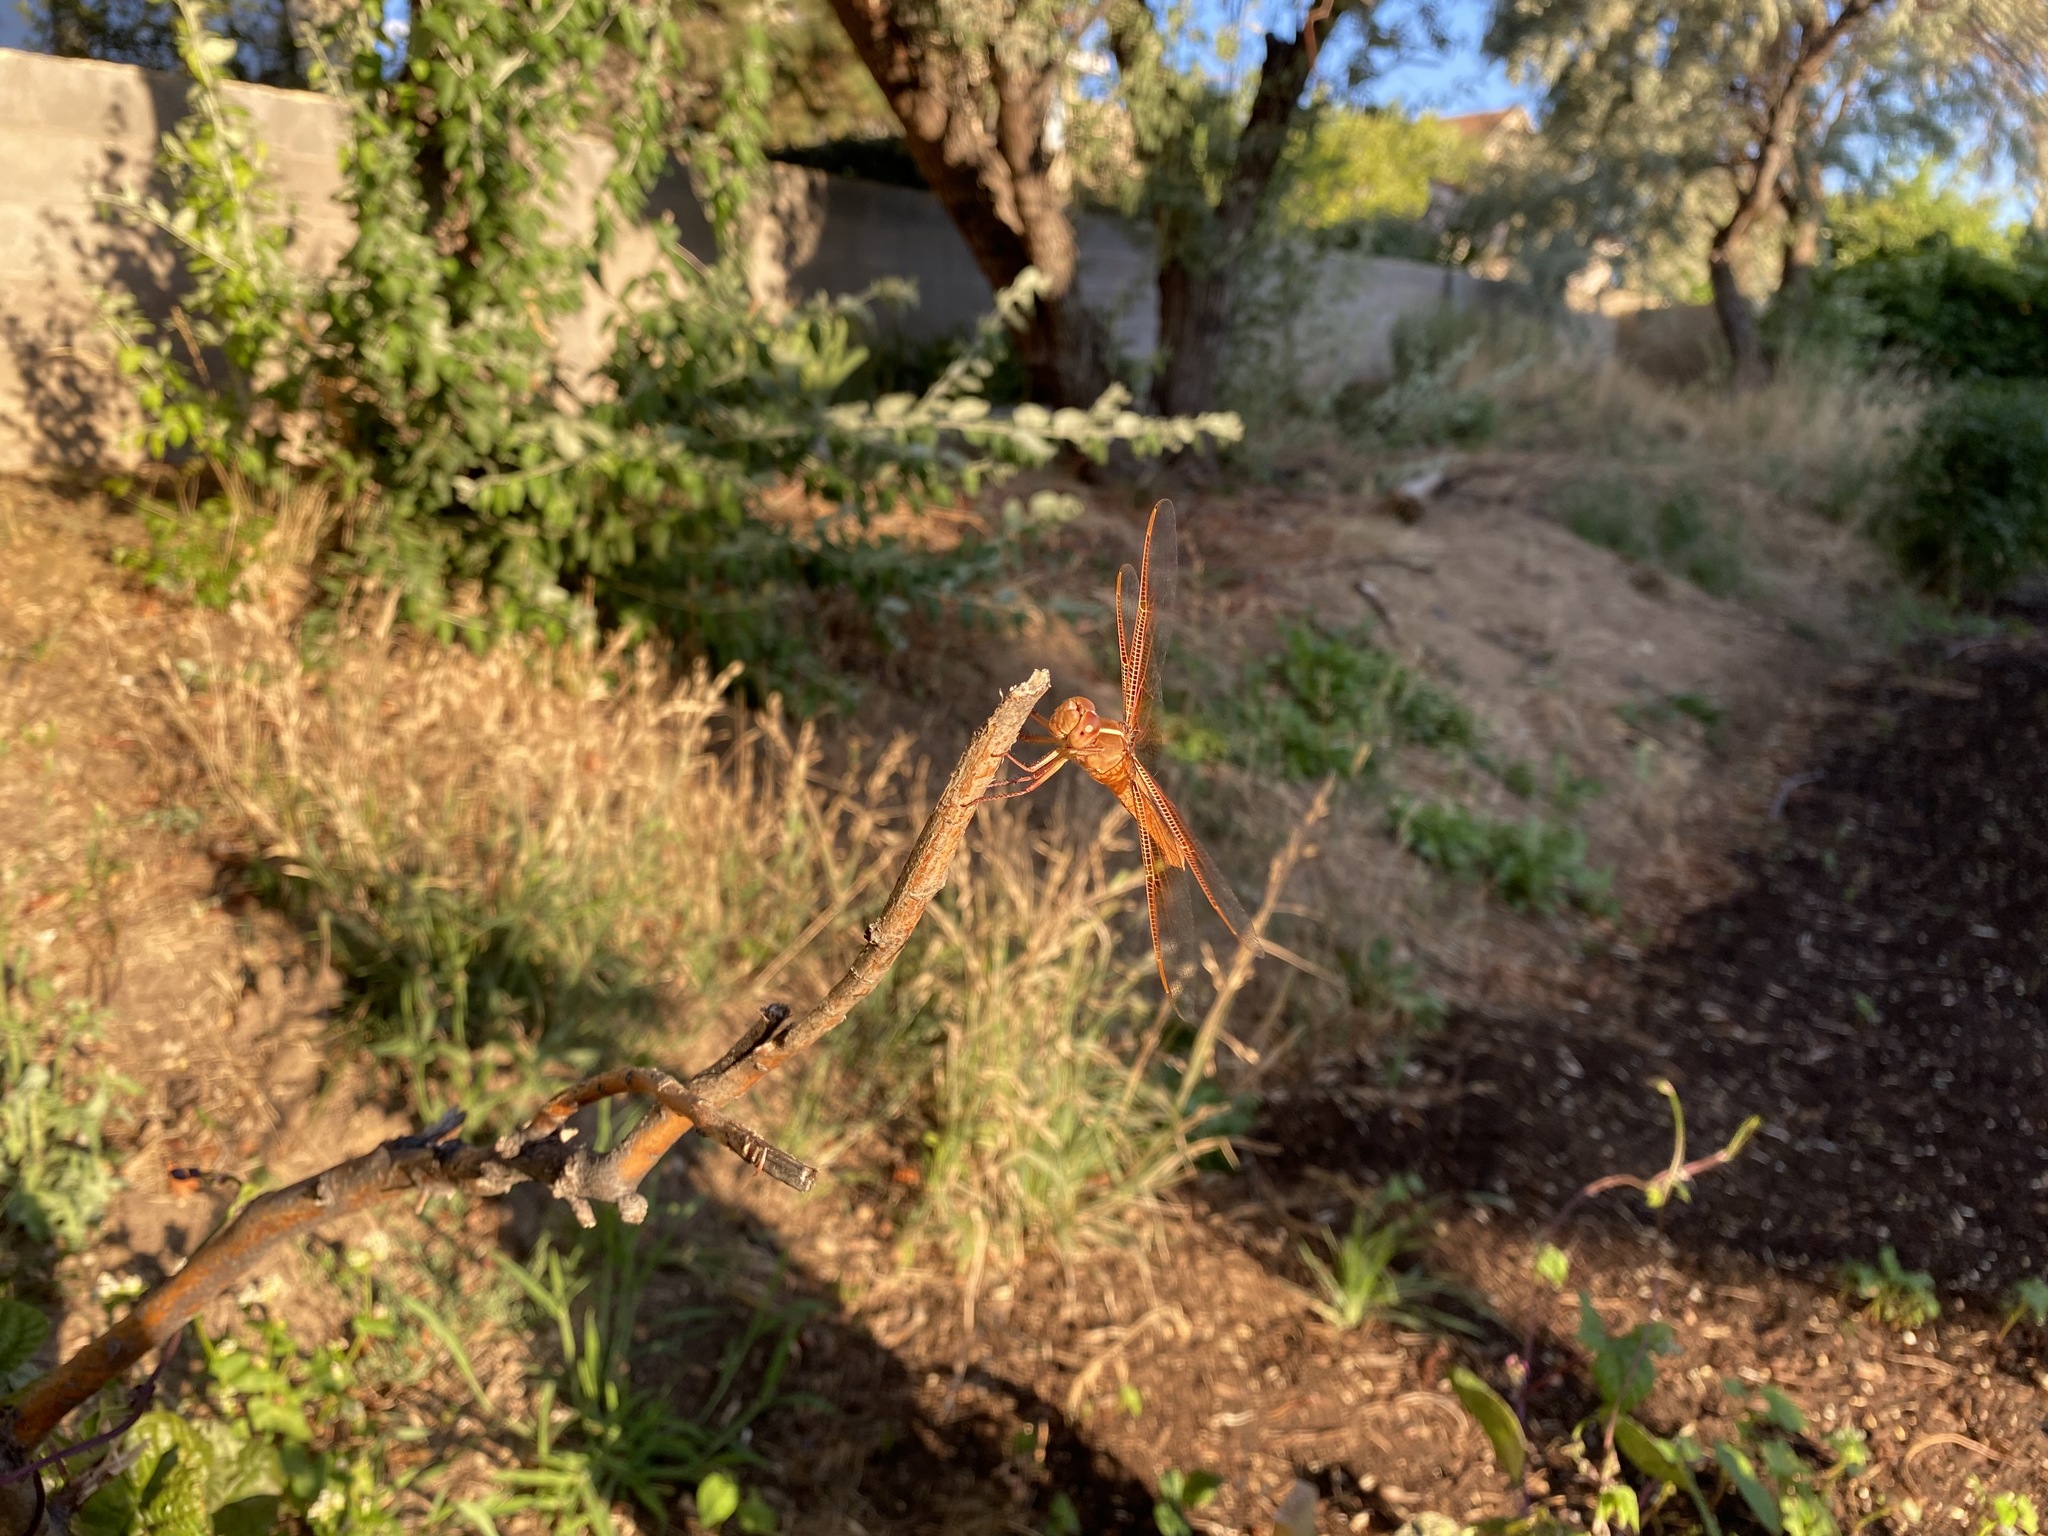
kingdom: Animalia
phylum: Arthropoda
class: Insecta
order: Odonata
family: Libellulidae
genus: Libellula
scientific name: Libellula saturata
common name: Flame skimmer
